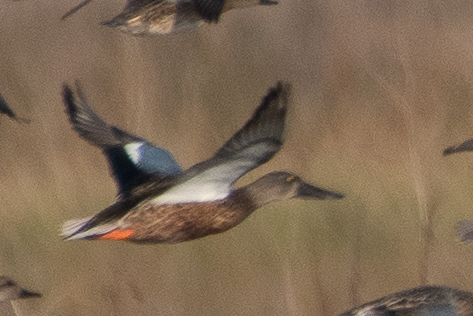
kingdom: Animalia
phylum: Chordata
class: Aves
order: Anseriformes
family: Anatidae
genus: Spatula
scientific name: Spatula clypeata
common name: Northern shoveler
